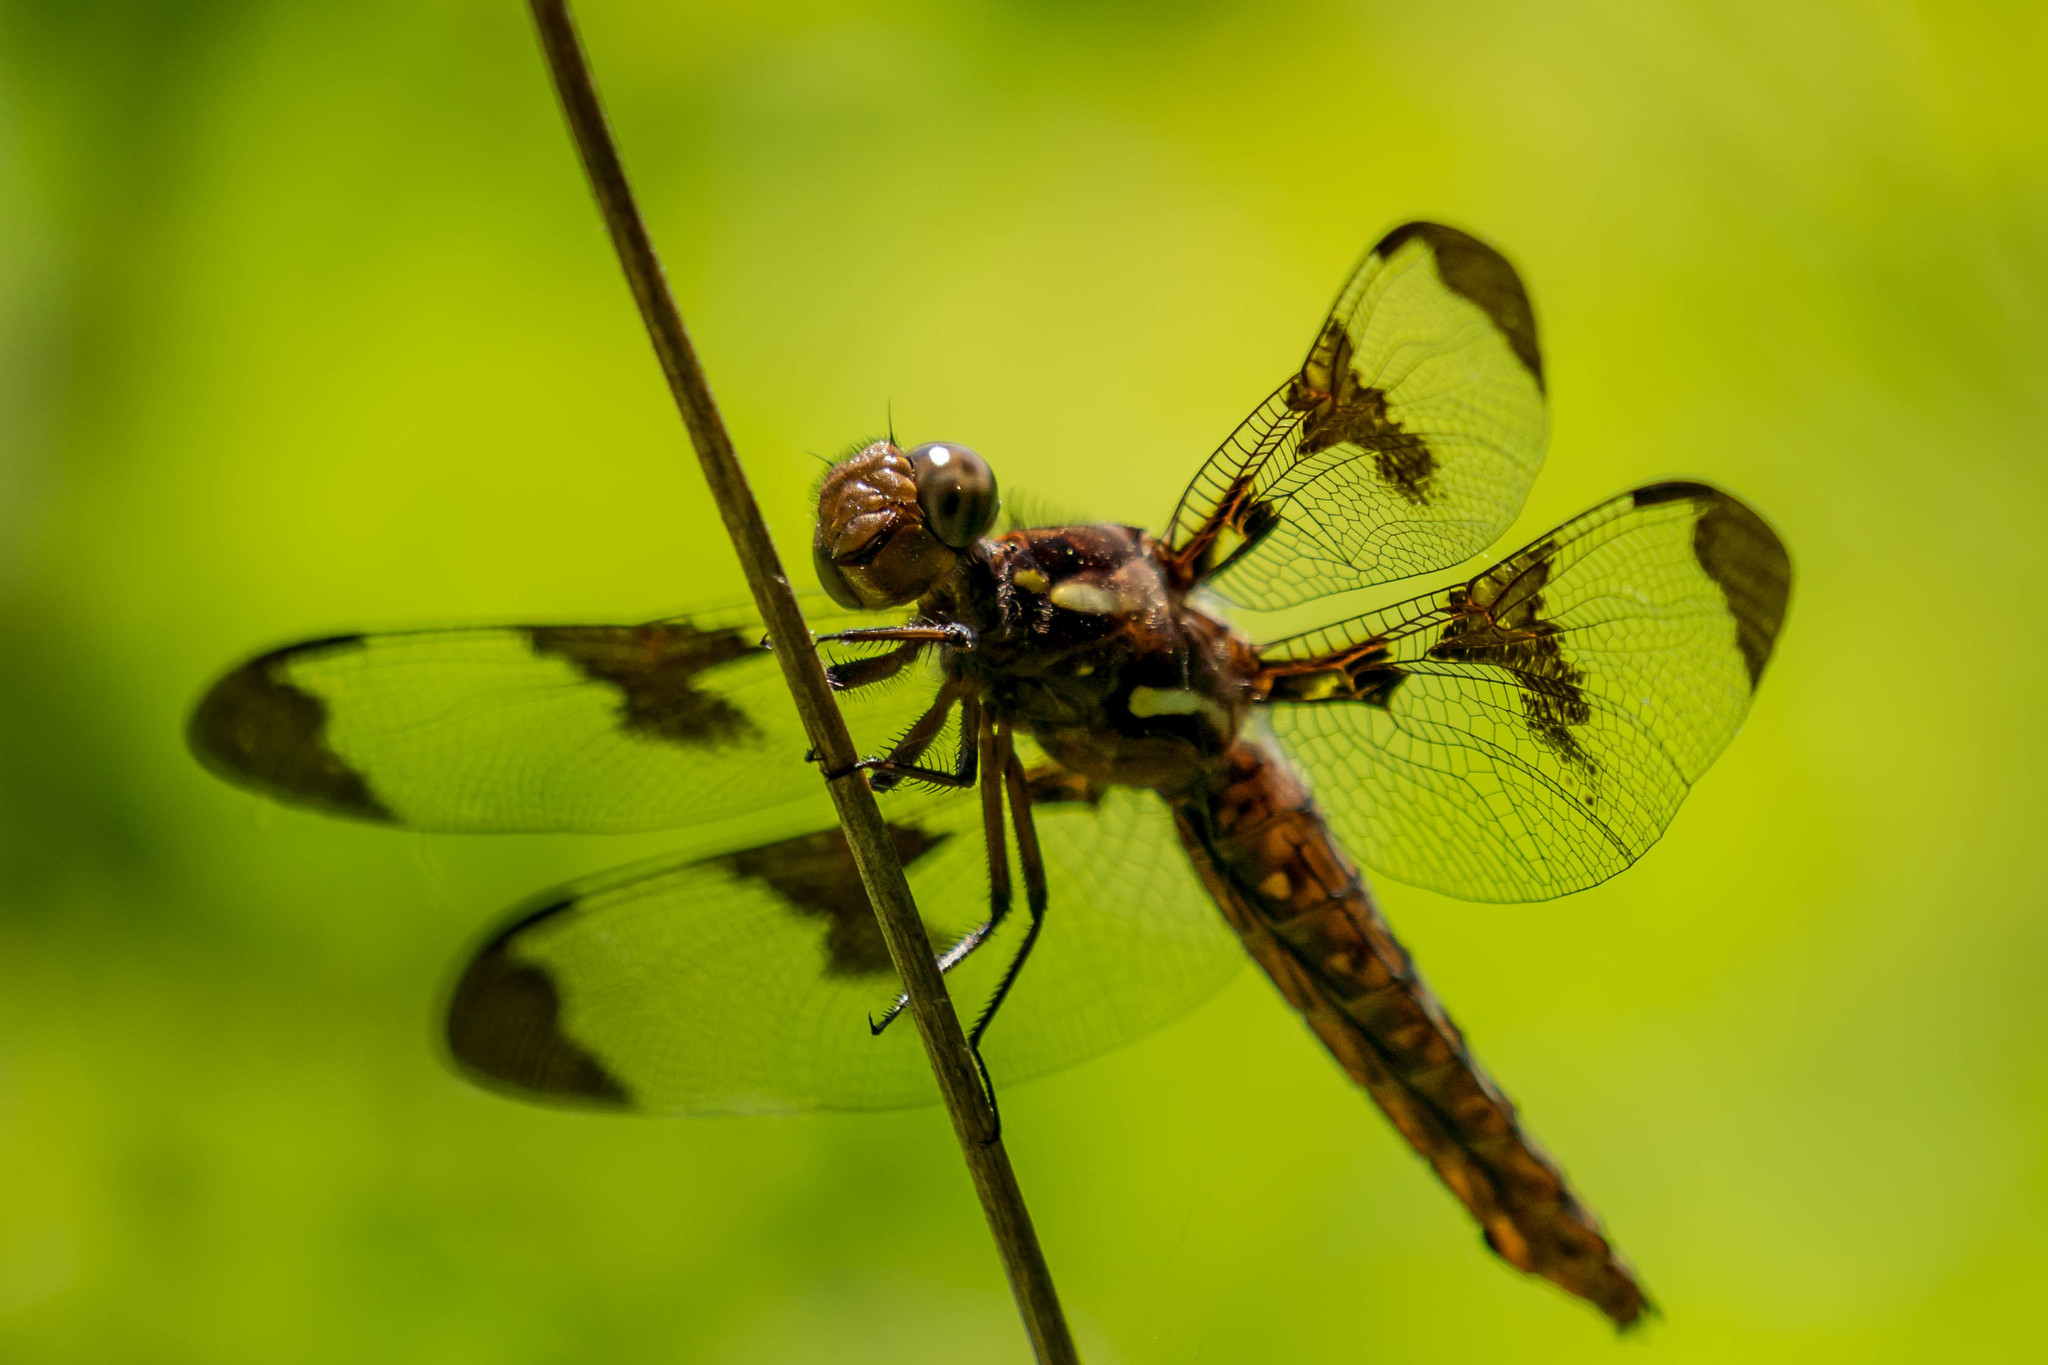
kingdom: Animalia
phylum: Arthropoda
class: Insecta
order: Odonata
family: Libellulidae
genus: Plathemis
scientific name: Plathemis lydia
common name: Common whitetail
